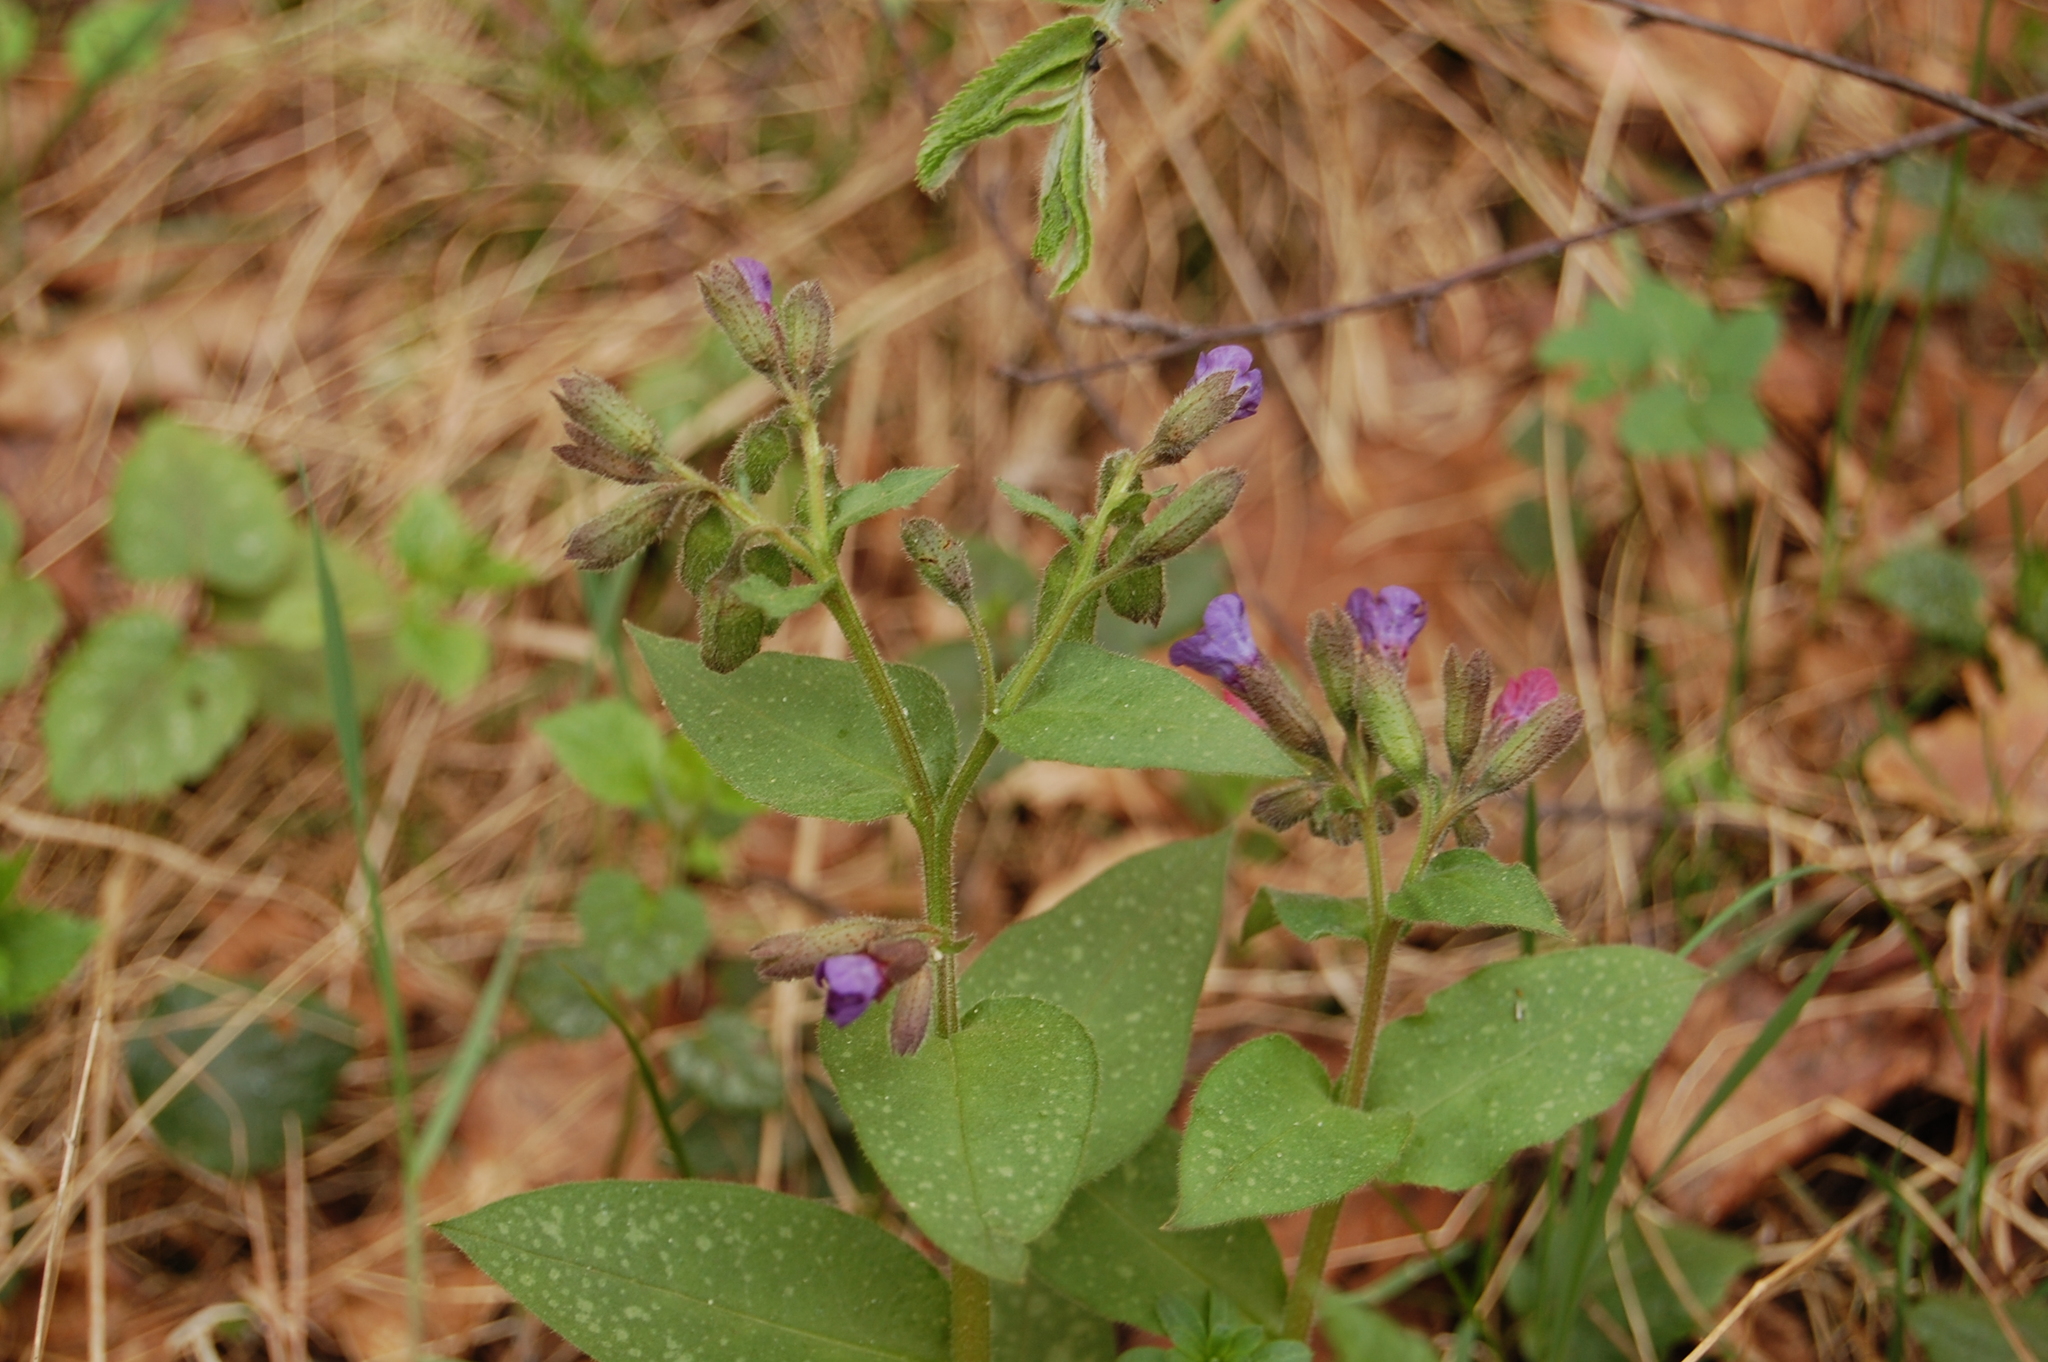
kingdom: Plantae
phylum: Tracheophyta
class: Magnoliopsida
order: Boraginales
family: Boraginaceae
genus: Pulmonaria
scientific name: Pulmonaria obscura
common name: Suffolk lungwort
